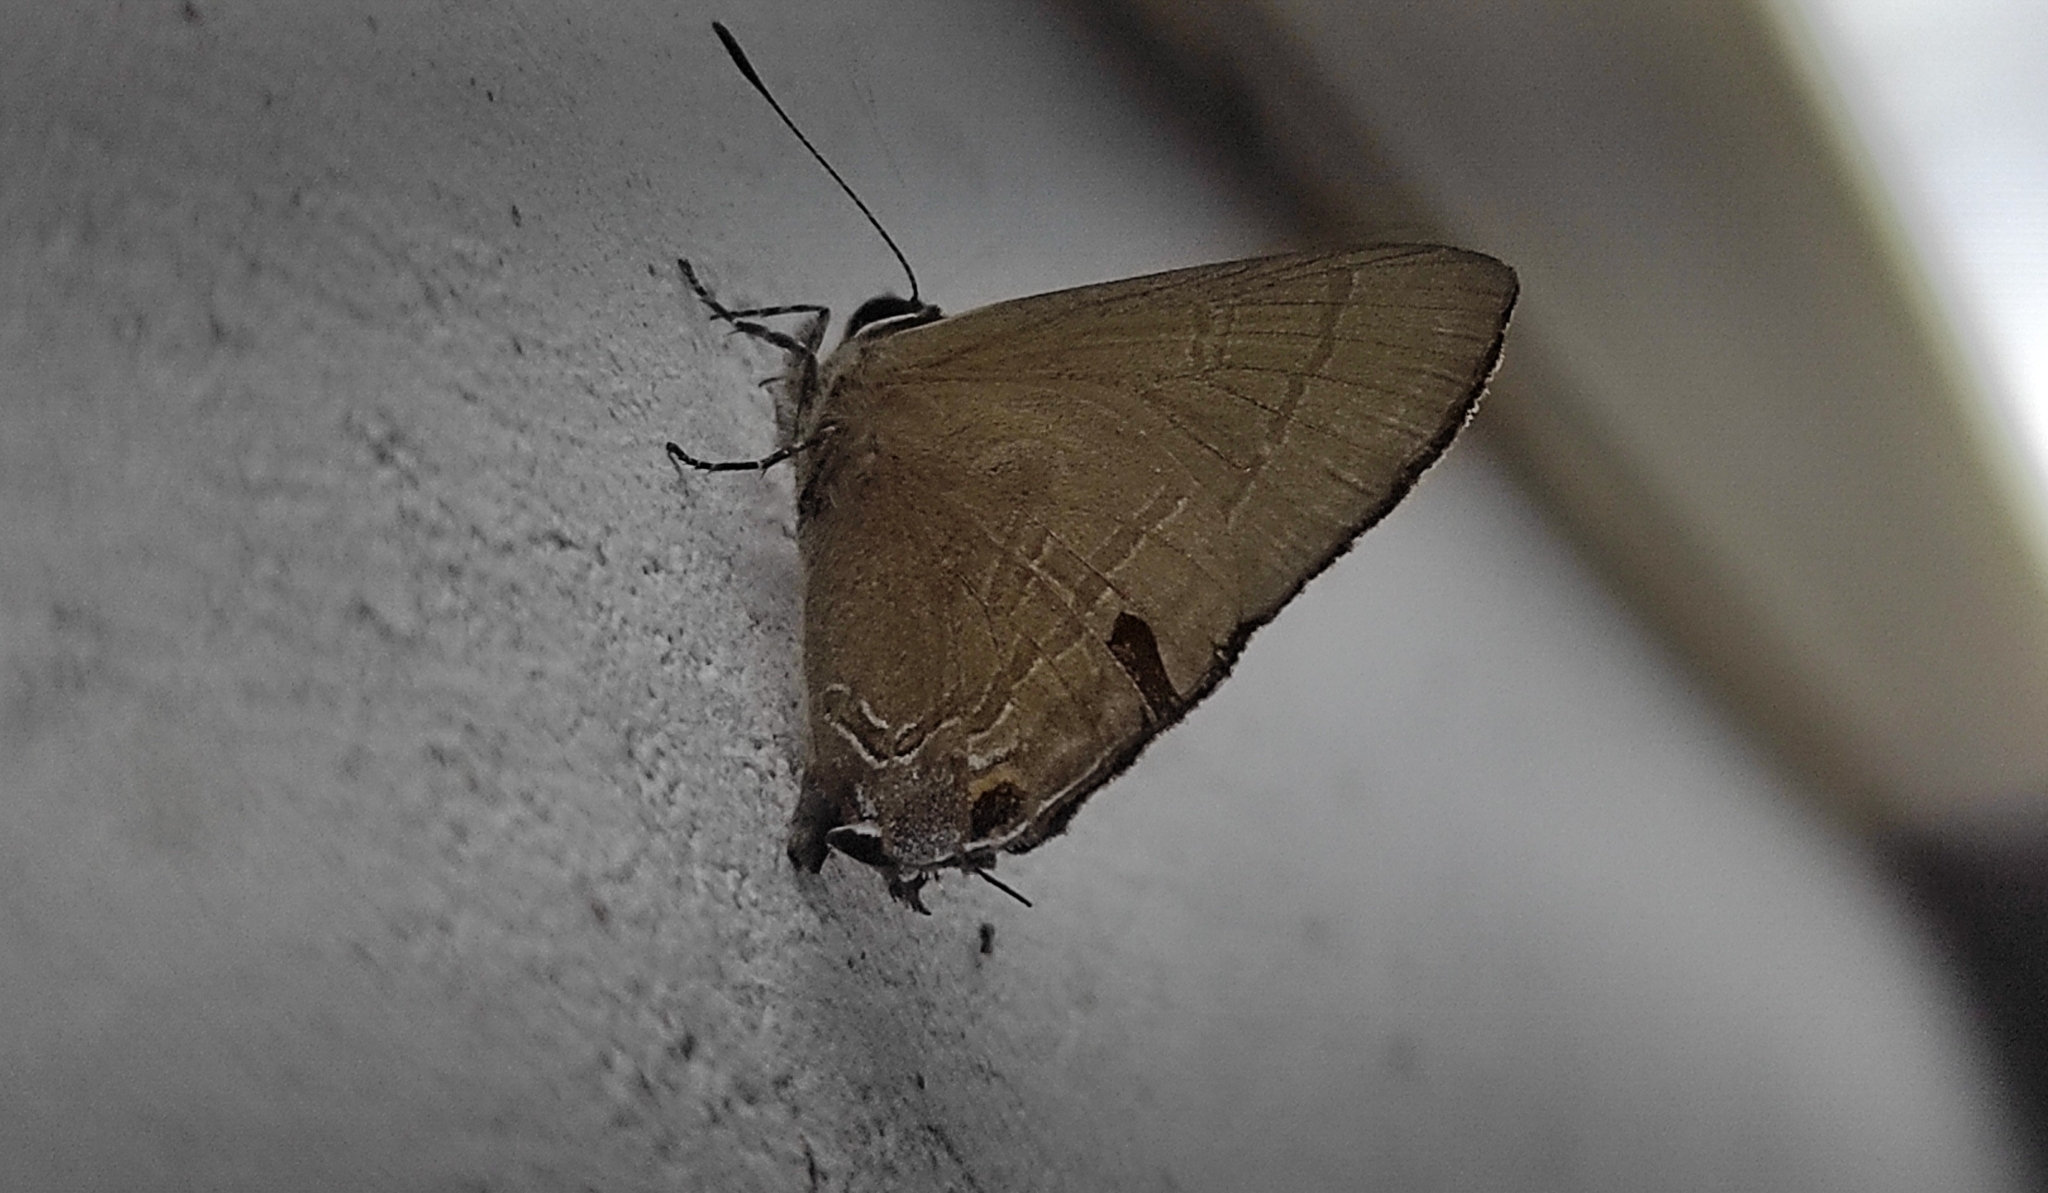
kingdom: Animalia
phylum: Arthropoda
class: Insecta
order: Lepidoptera
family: Lycaenidae
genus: Rapala
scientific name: Rapala manea
